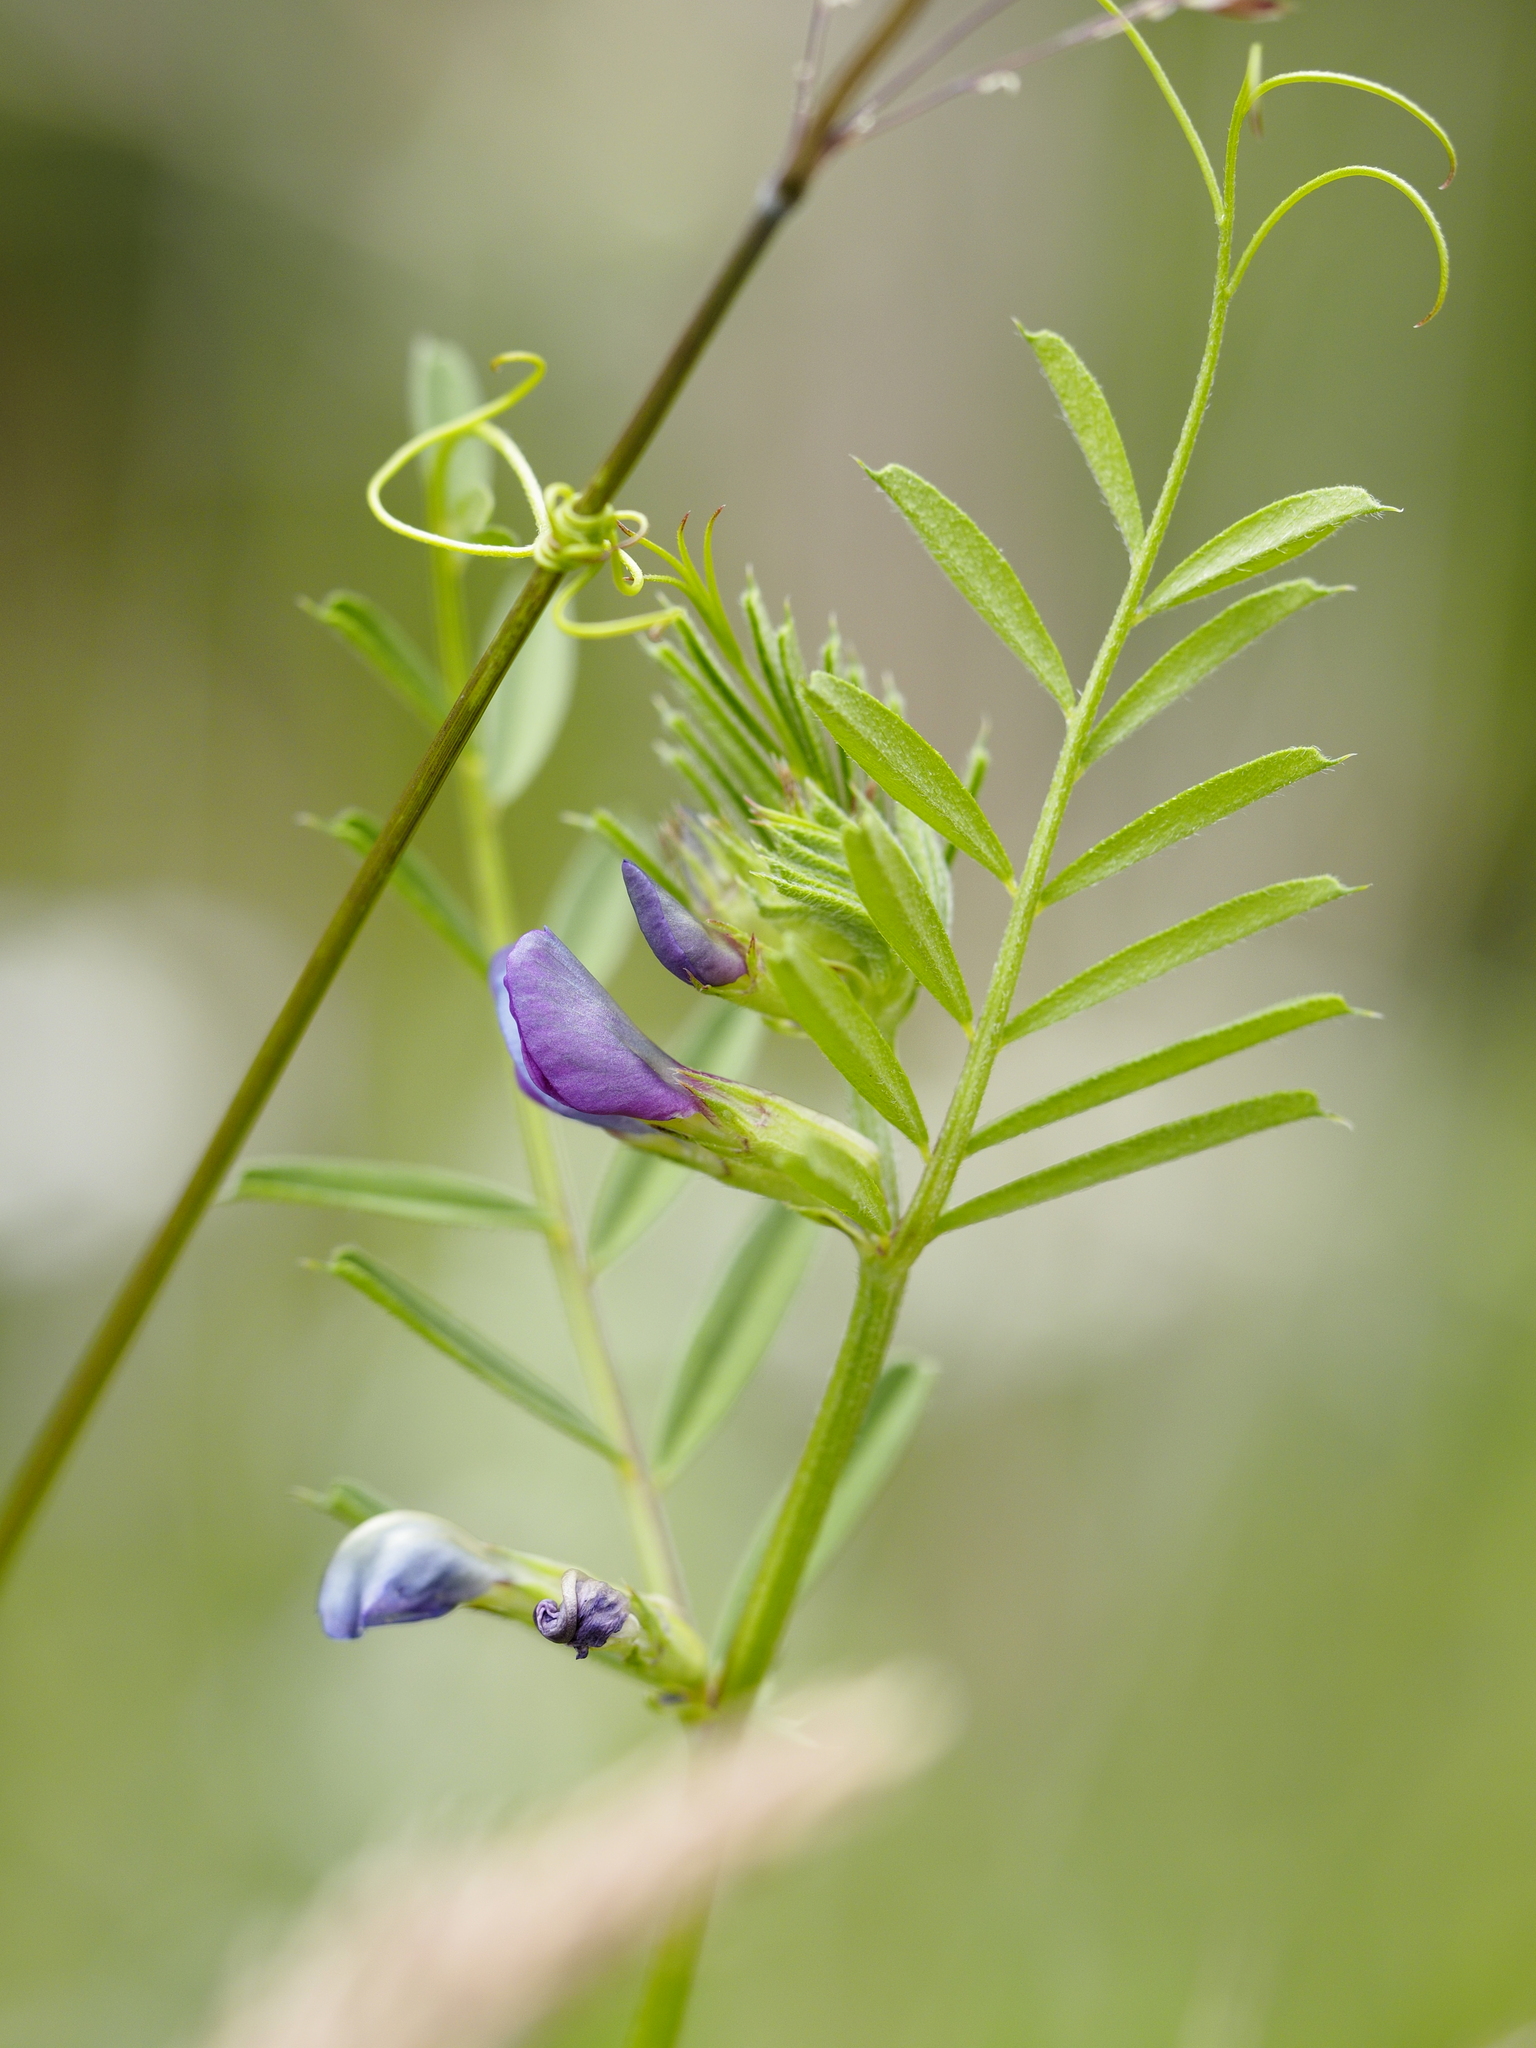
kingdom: Plantae
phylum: Tracheophyta
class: Magnoliopsida
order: Fabales
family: Fabaceae
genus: Vicia
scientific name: Vicia sativa
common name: Garden vetch
